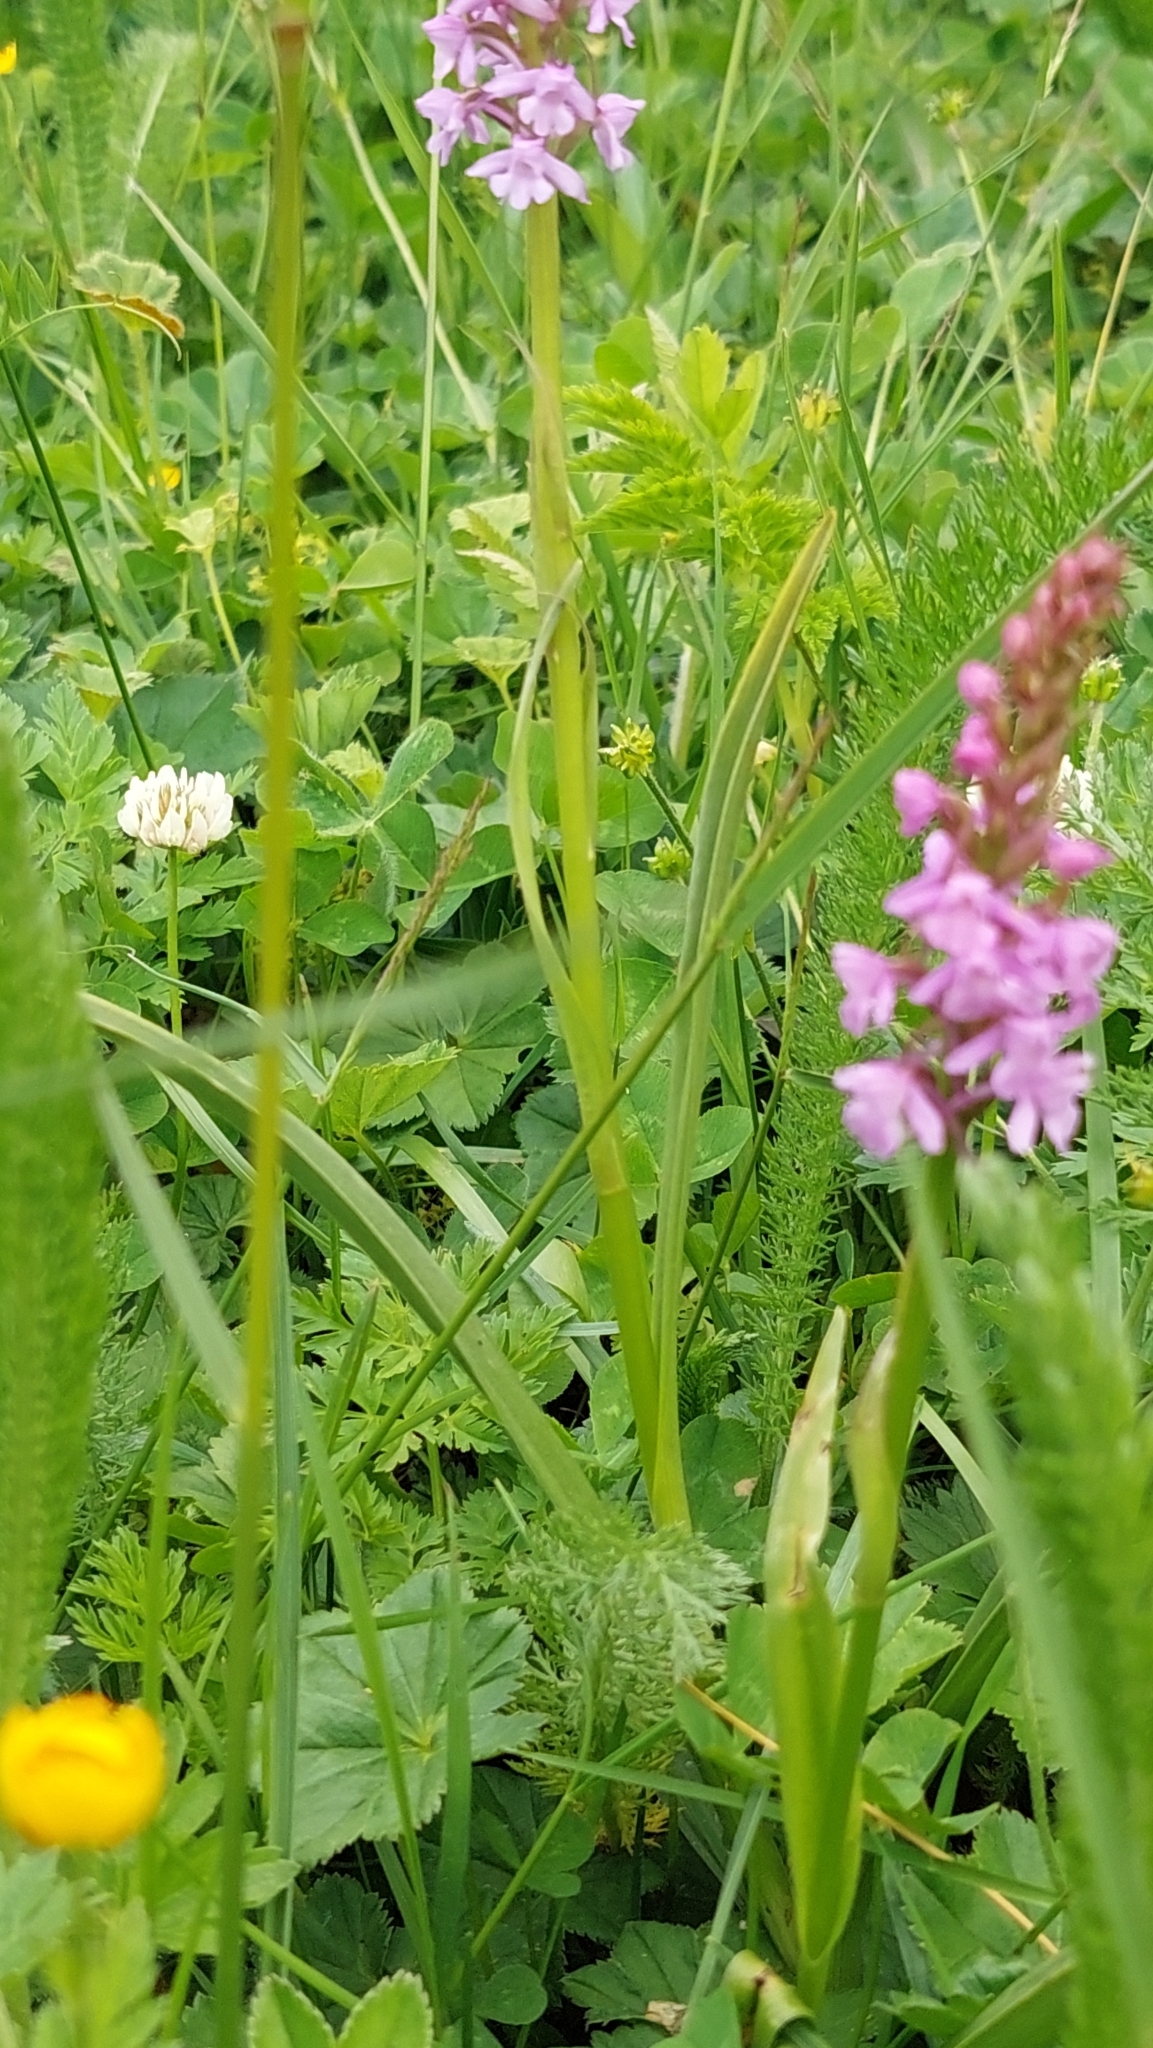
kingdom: Plantae
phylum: Tracheophyta
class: Liliopsida
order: Asparagales
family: Orchidaceae
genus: Gymnadenia
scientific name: Gymnadenia conopsea
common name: Fragrant orchid
